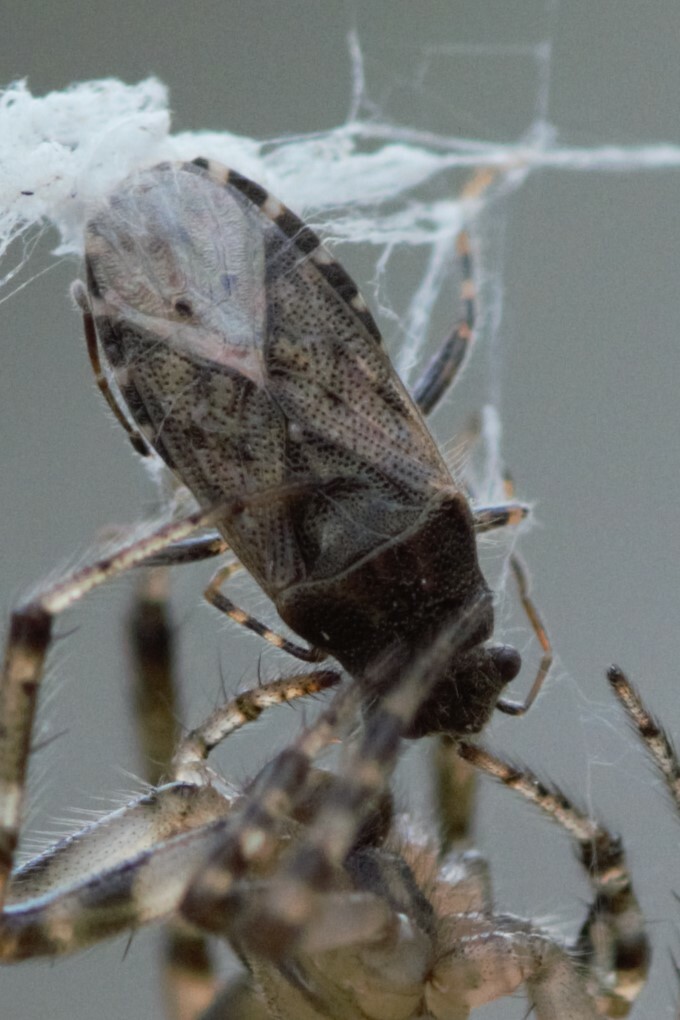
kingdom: Animalia
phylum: Arthropoda
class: Insecta
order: Hemiptera
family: Heterogastridae
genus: Heterogaster
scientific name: Heterogaster urticae
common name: Seed bug
